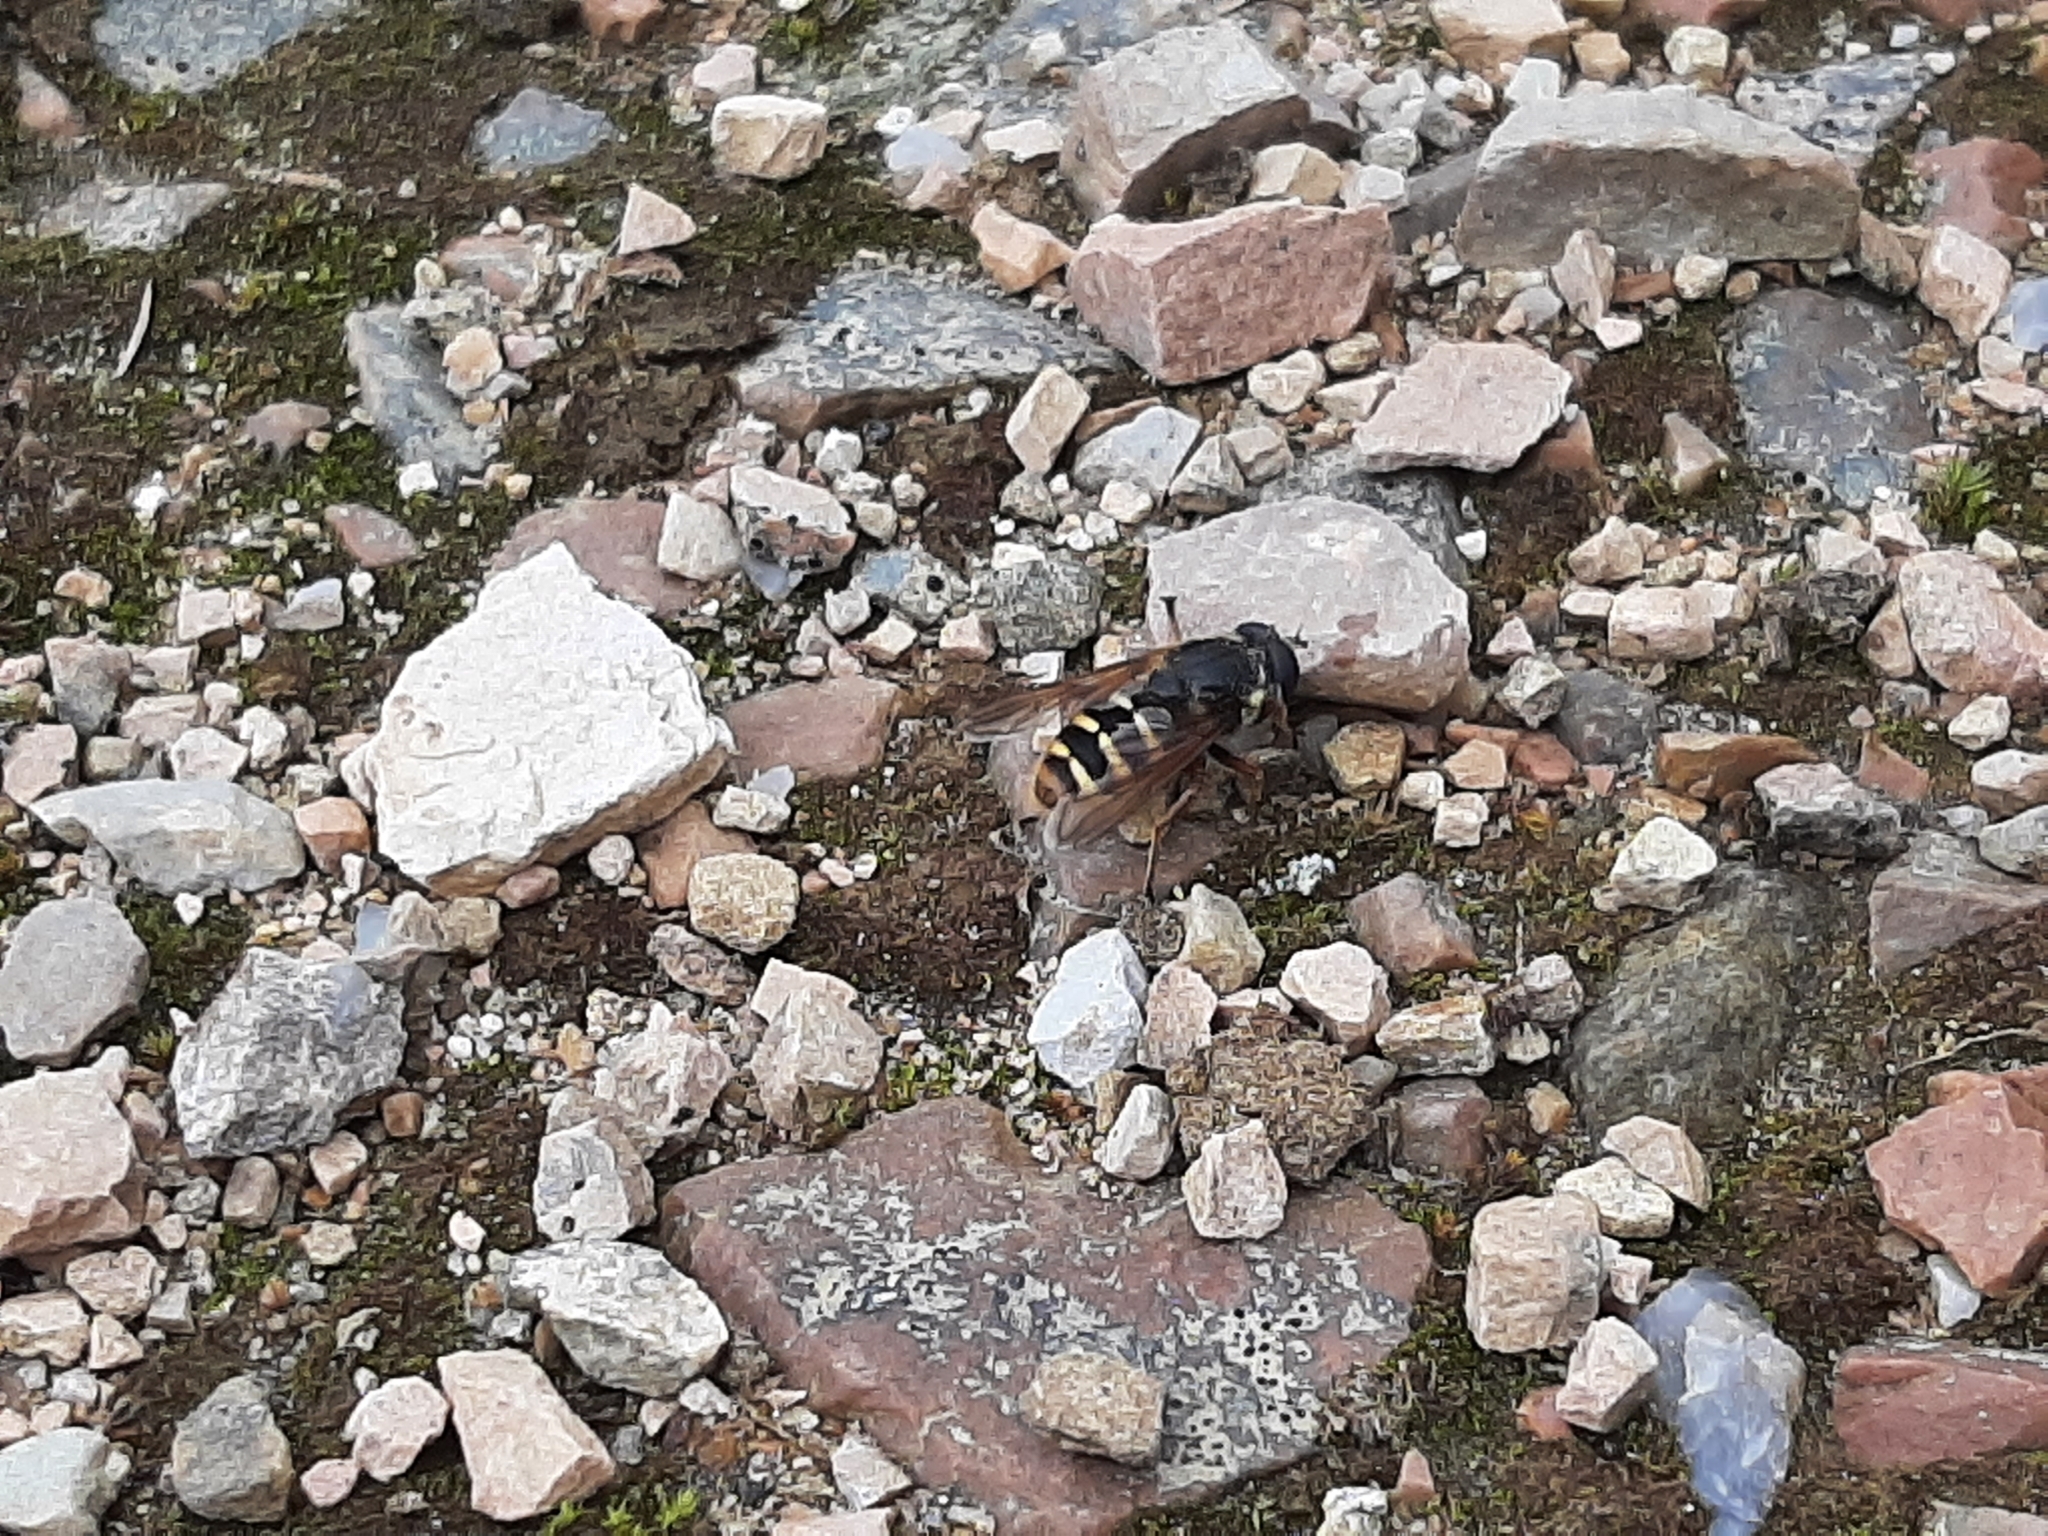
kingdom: Animalia
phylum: Arthropoda
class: Insecta
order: Diptera
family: Syrphidae
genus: Sericomyia
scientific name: Sericomyia silentis
